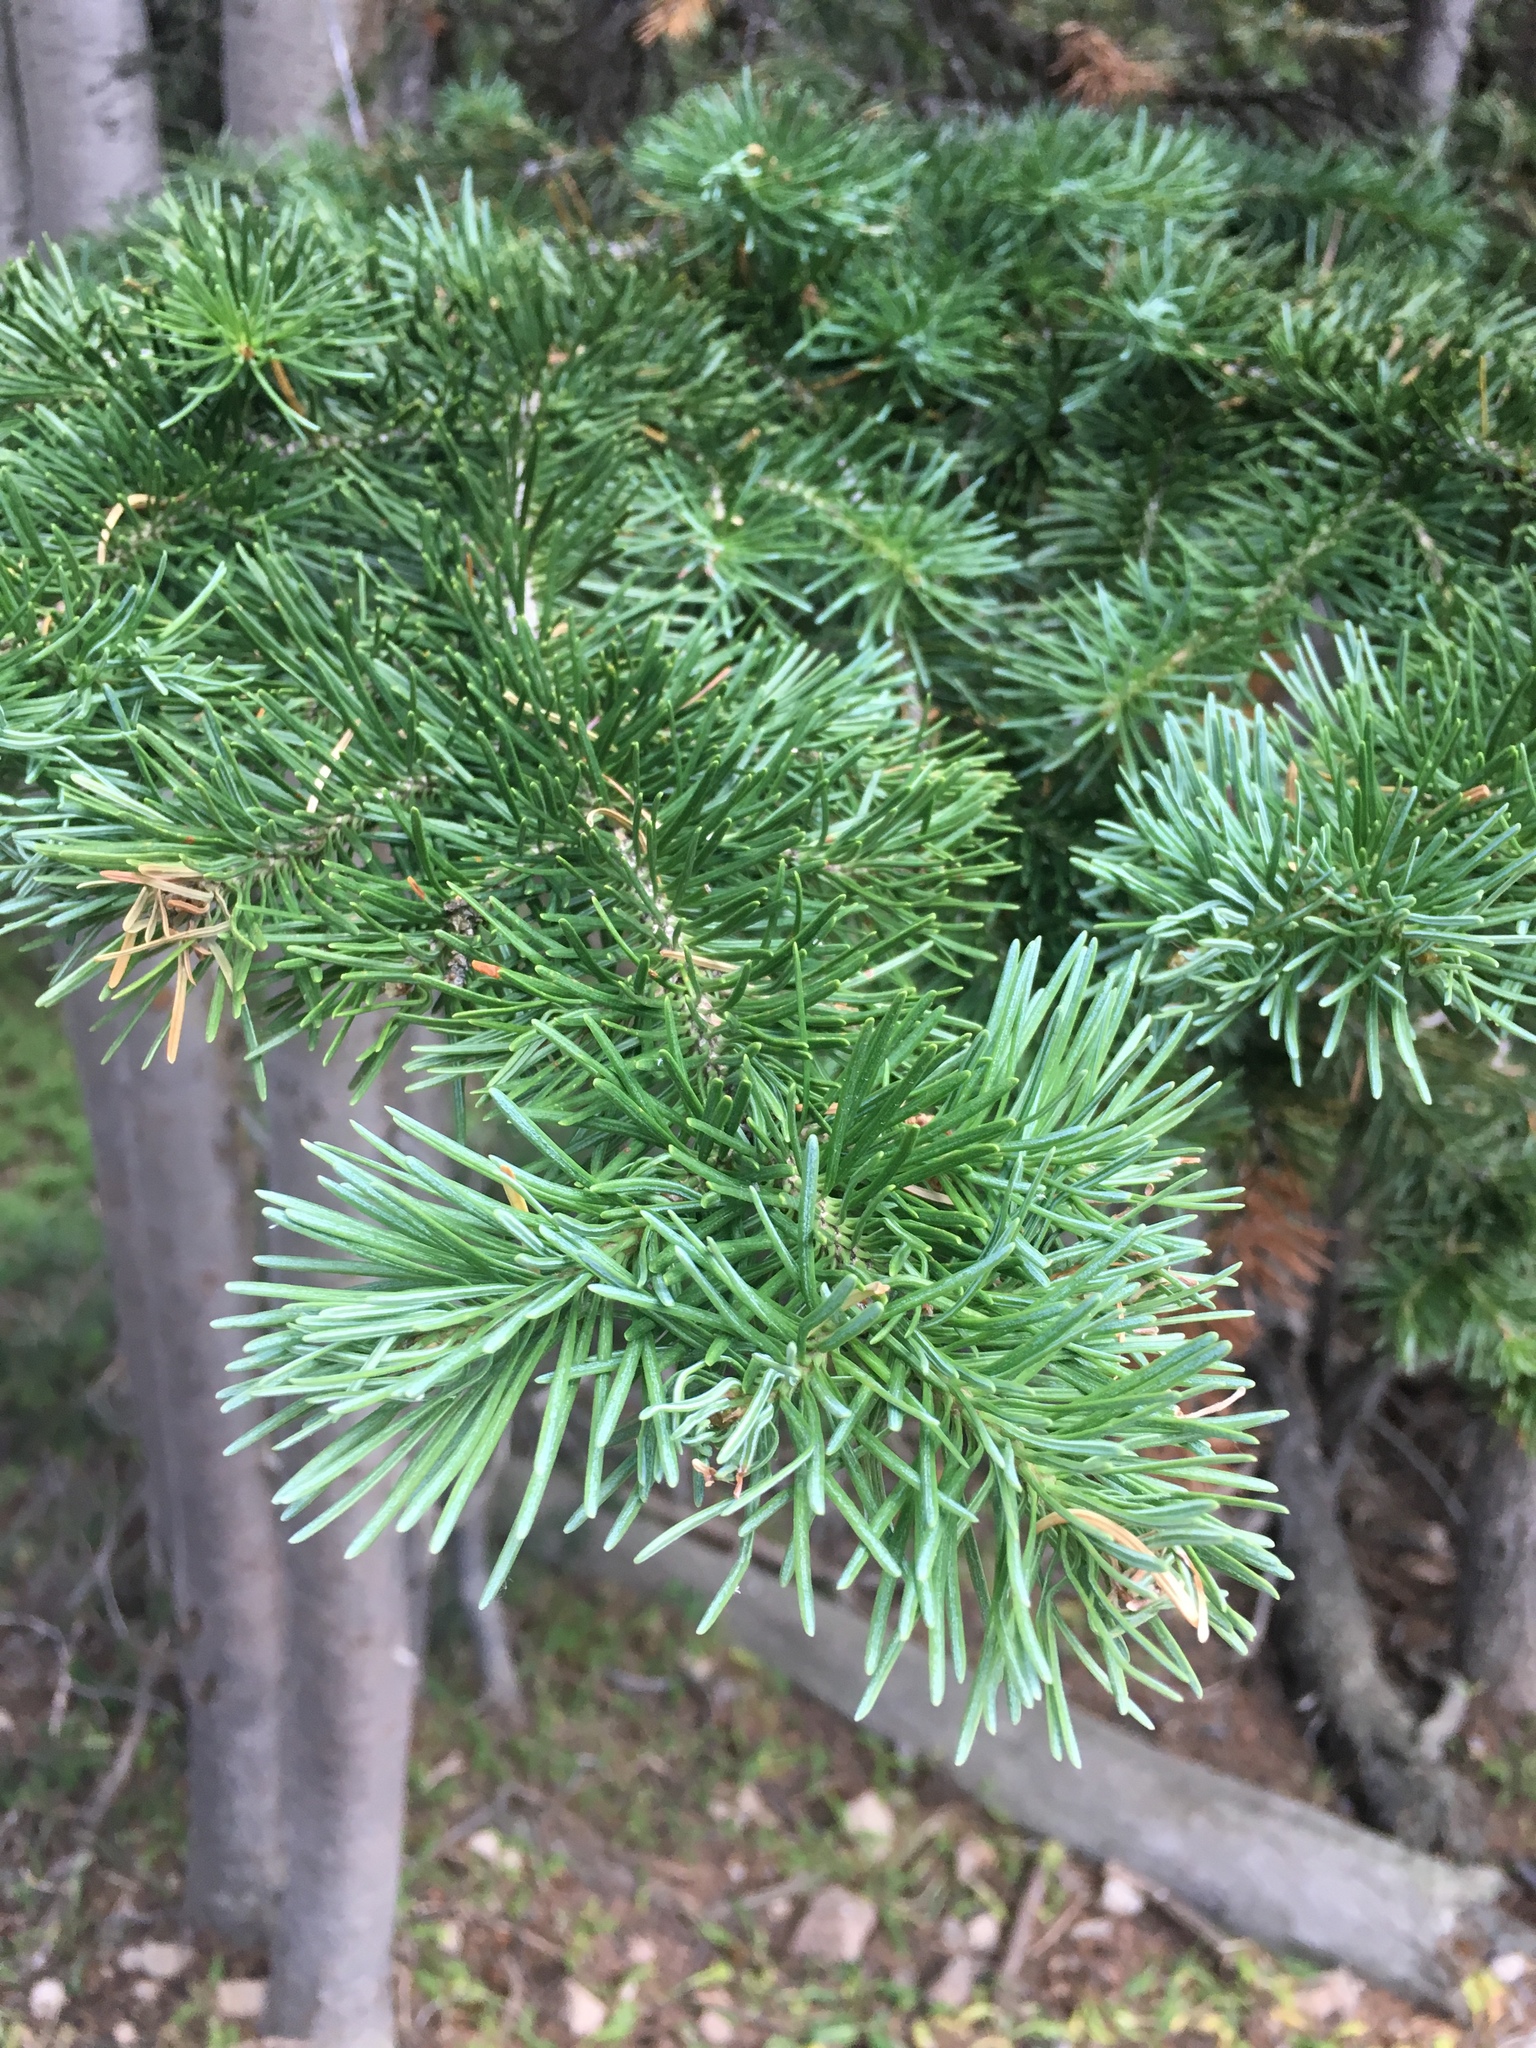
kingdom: Plantae
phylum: Tracheophyta
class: Pinopsida
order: Pinales
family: Pinaceae
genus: Abies
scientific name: Abies lasiocarpa
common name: Subalpine fir
